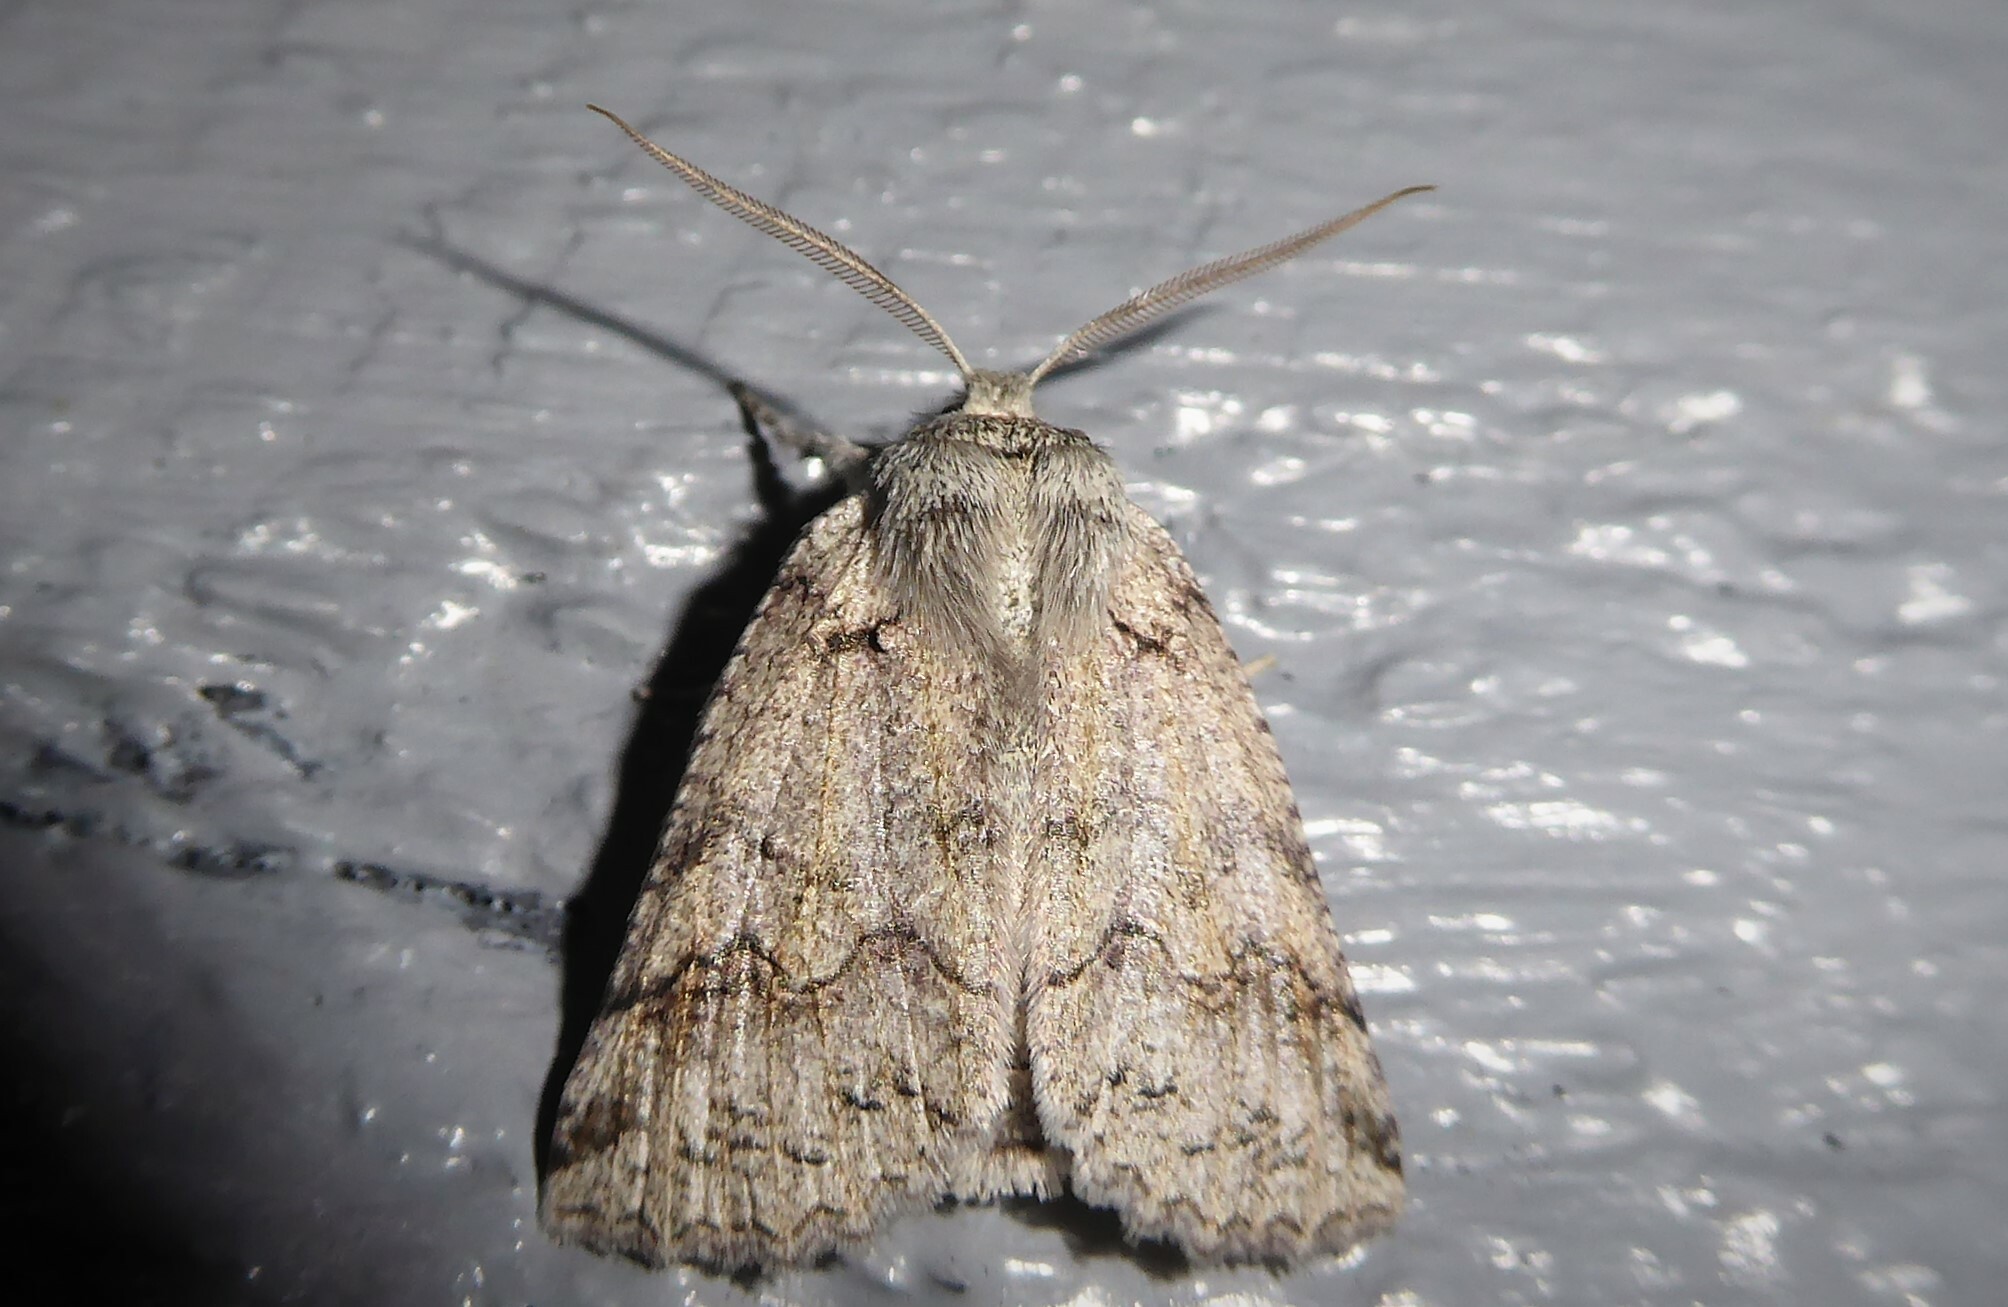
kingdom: Animalia
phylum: Arthropoda
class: Insecta
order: Lepidoptera
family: Geometridae
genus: Declana
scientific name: Declana floccosa
